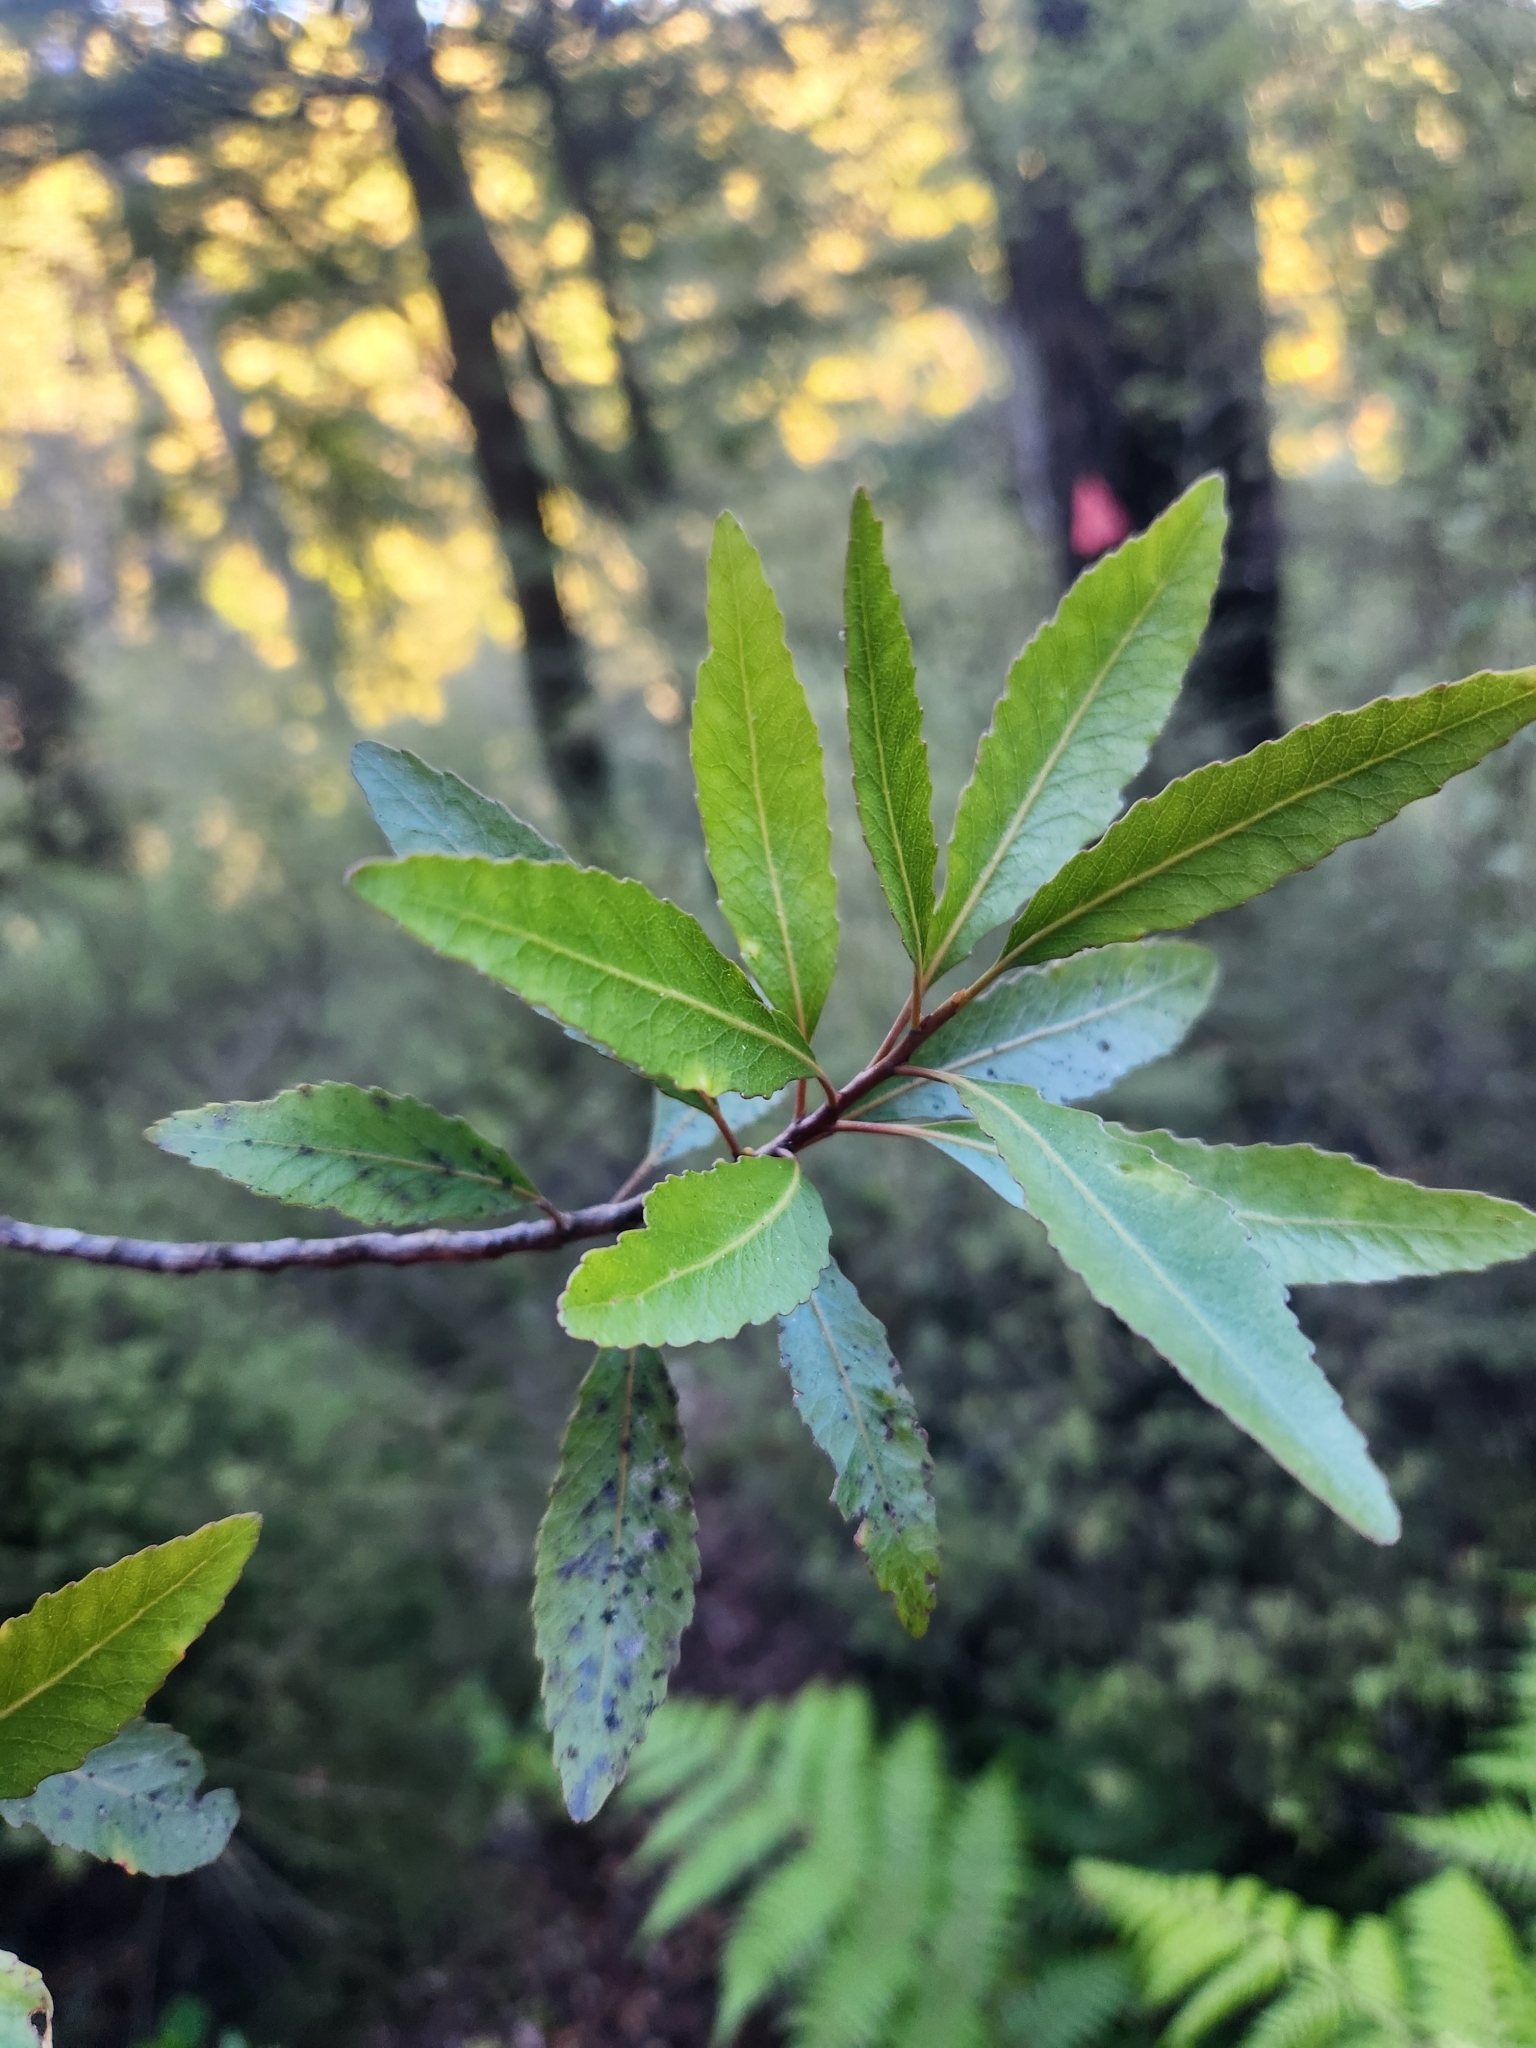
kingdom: Plantae
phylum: Tracheophyta
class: Magnoliopsida
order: Oxalidales
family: Elaeocarpaceae
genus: Elaeocarpus
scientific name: Elaeocarpus hookerianus
